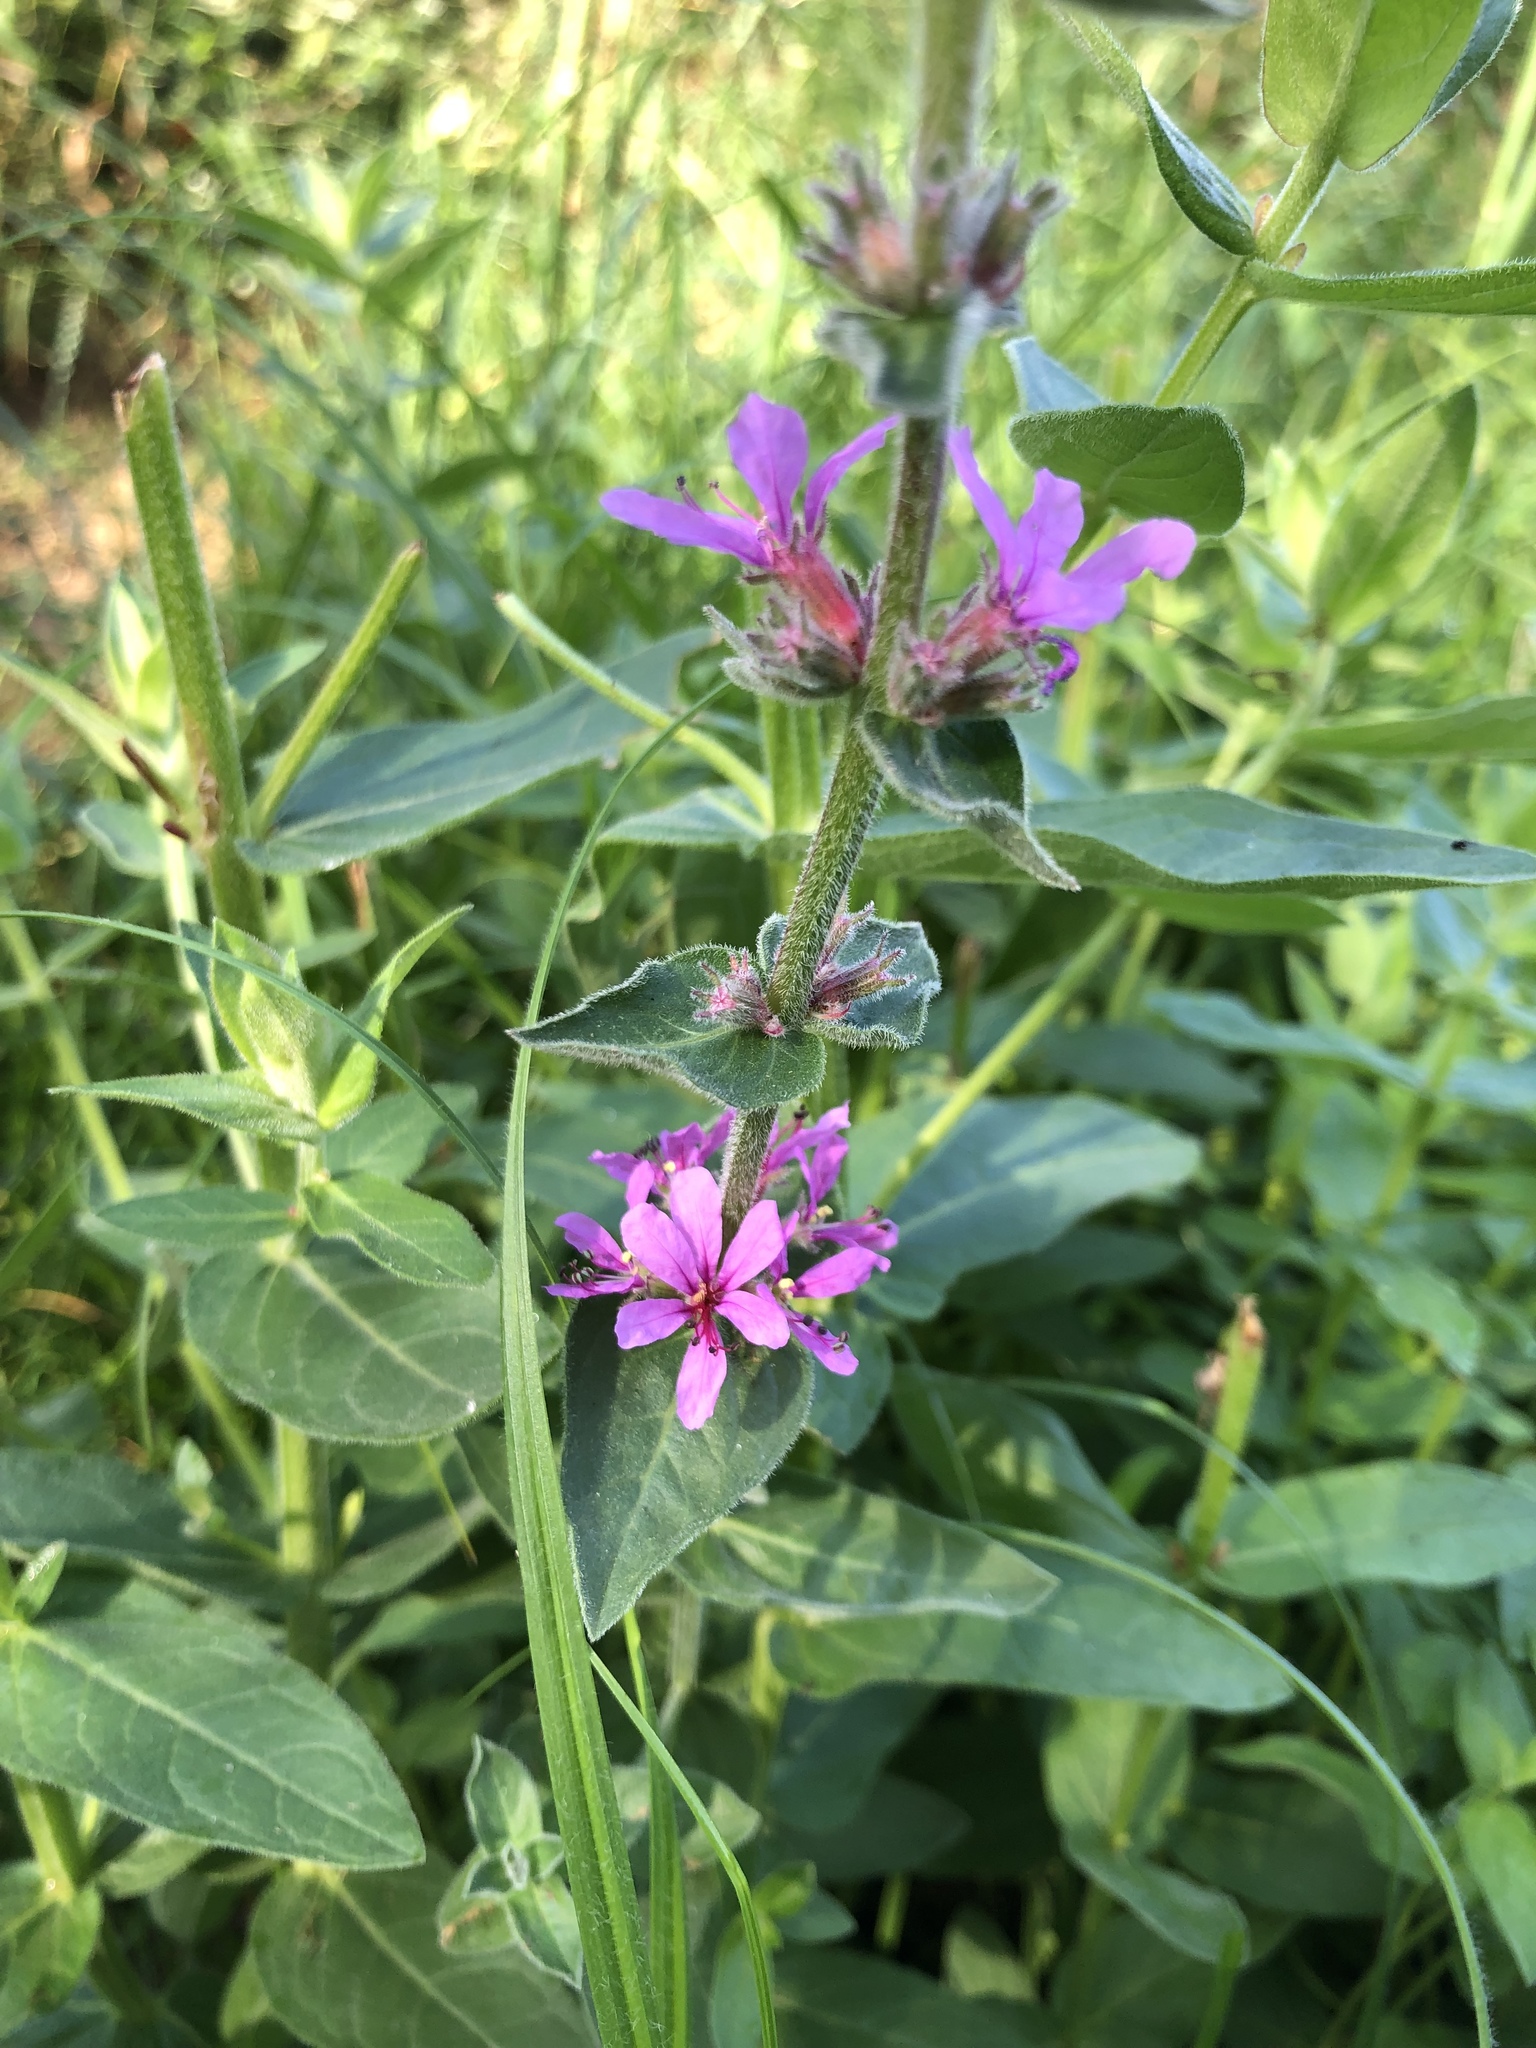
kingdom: Plantae
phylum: Tracheophyta
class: Magnoliopsida
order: Myrtales
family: Lythraceae
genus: Lythrum
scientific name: Lythrum salicaria
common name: Purple loosestrife
